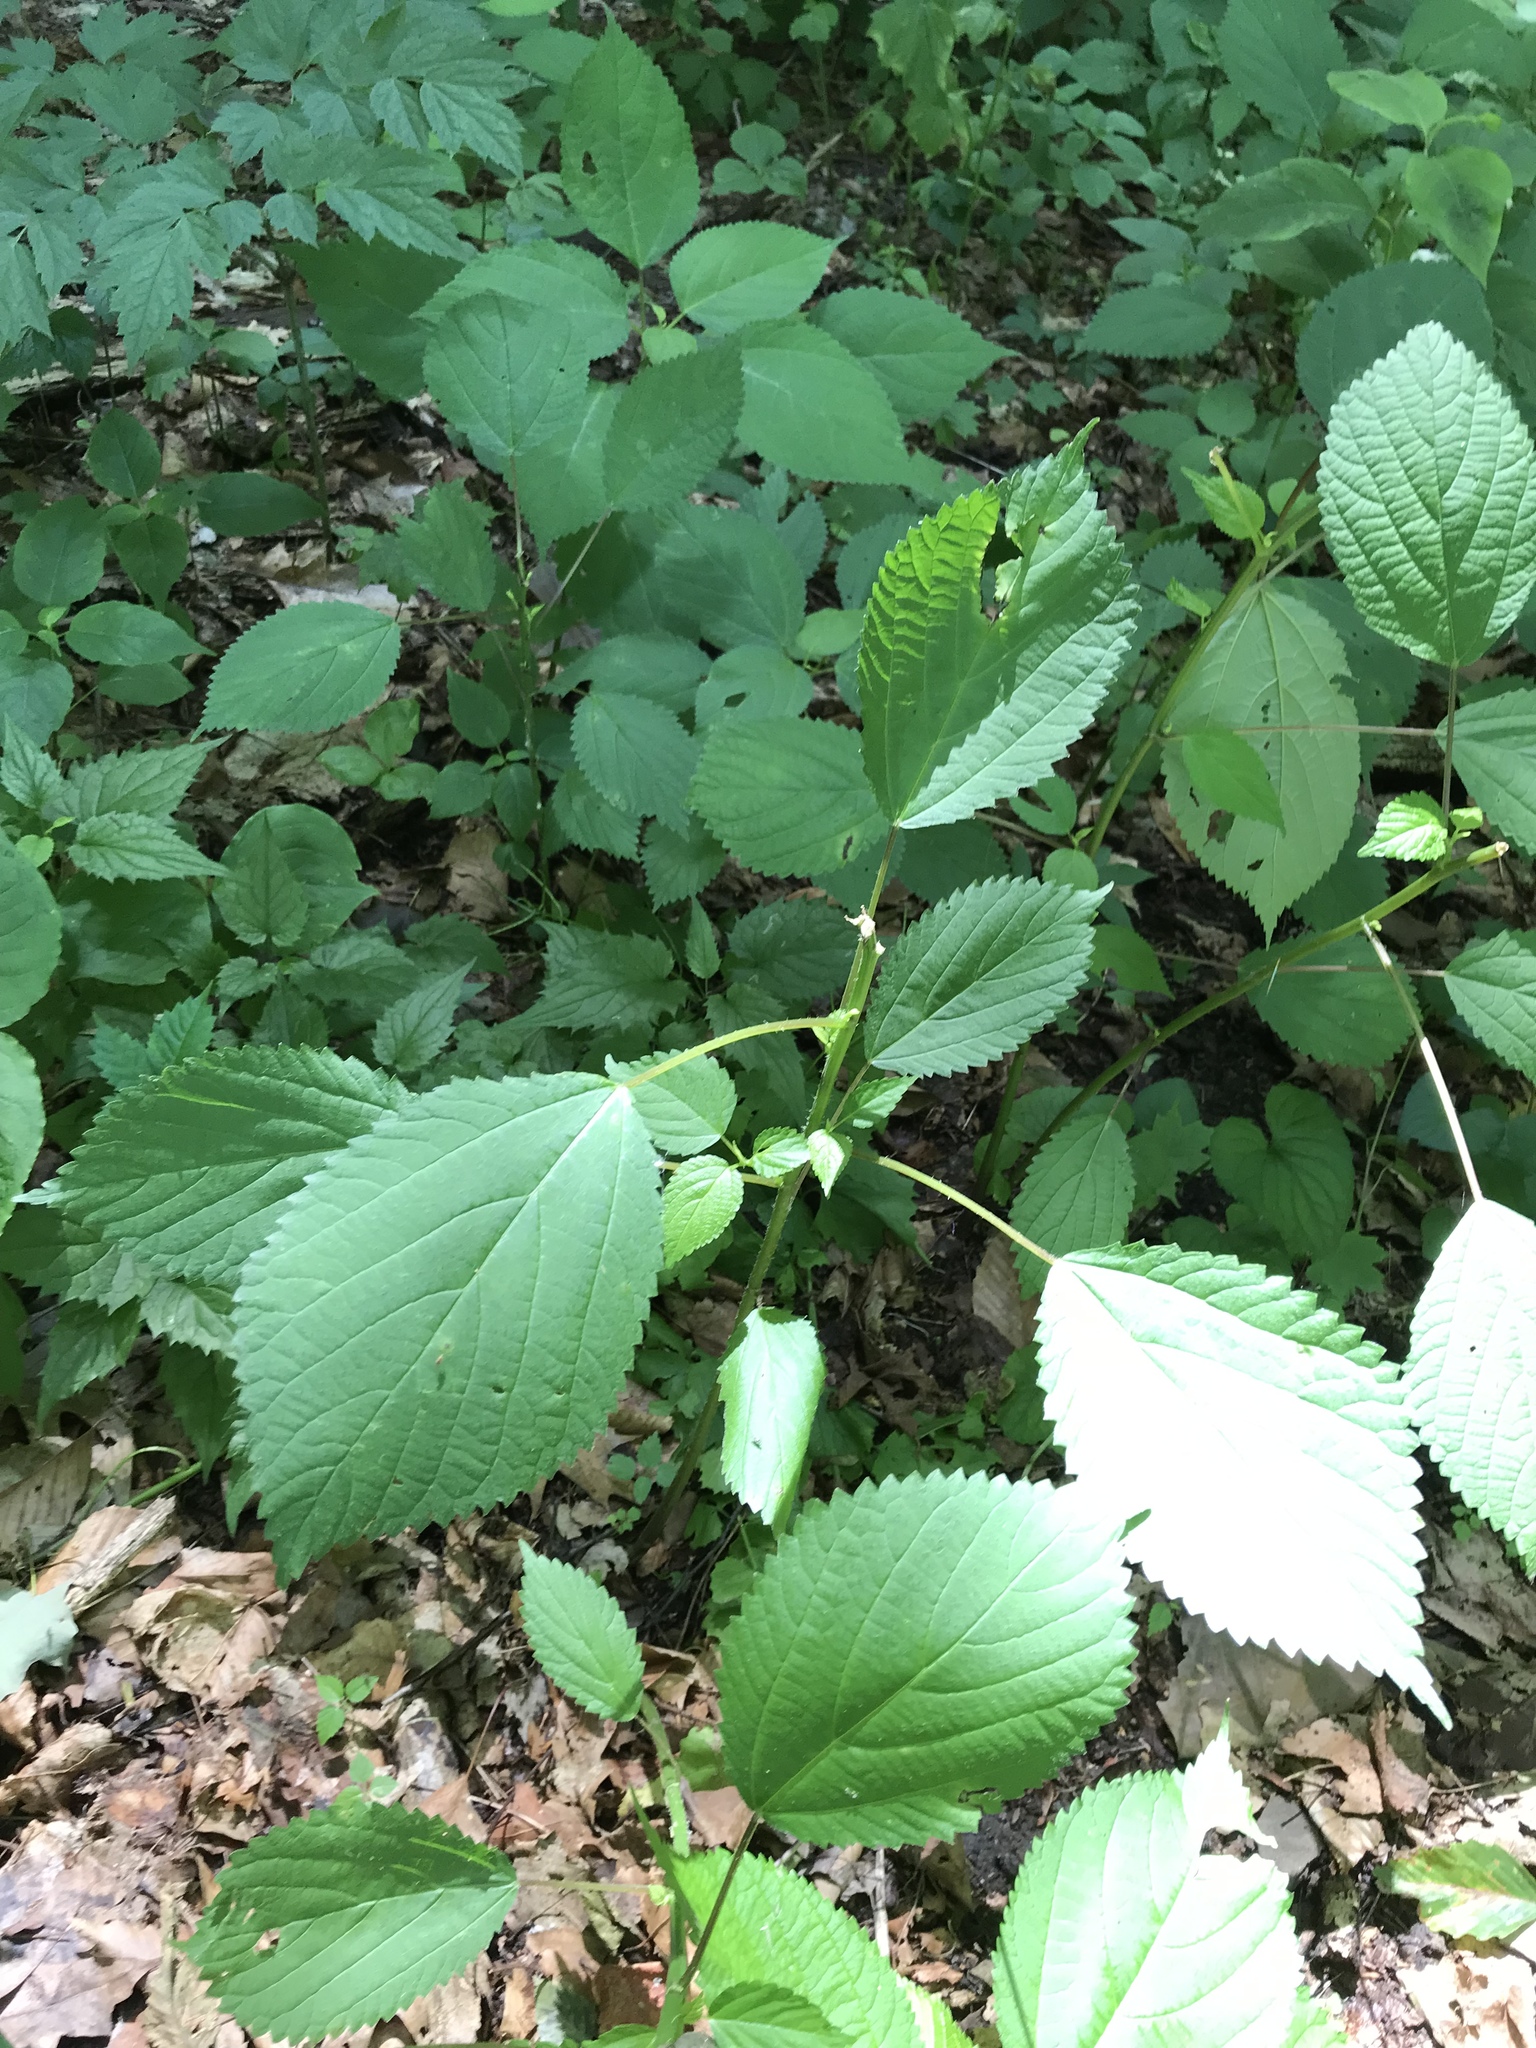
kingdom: Plantae
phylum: Tracheophyta
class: Magnoliopsida
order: Rosales
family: Urticaceae
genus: Laportea
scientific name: Laportea canadensis
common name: Canada nettle
